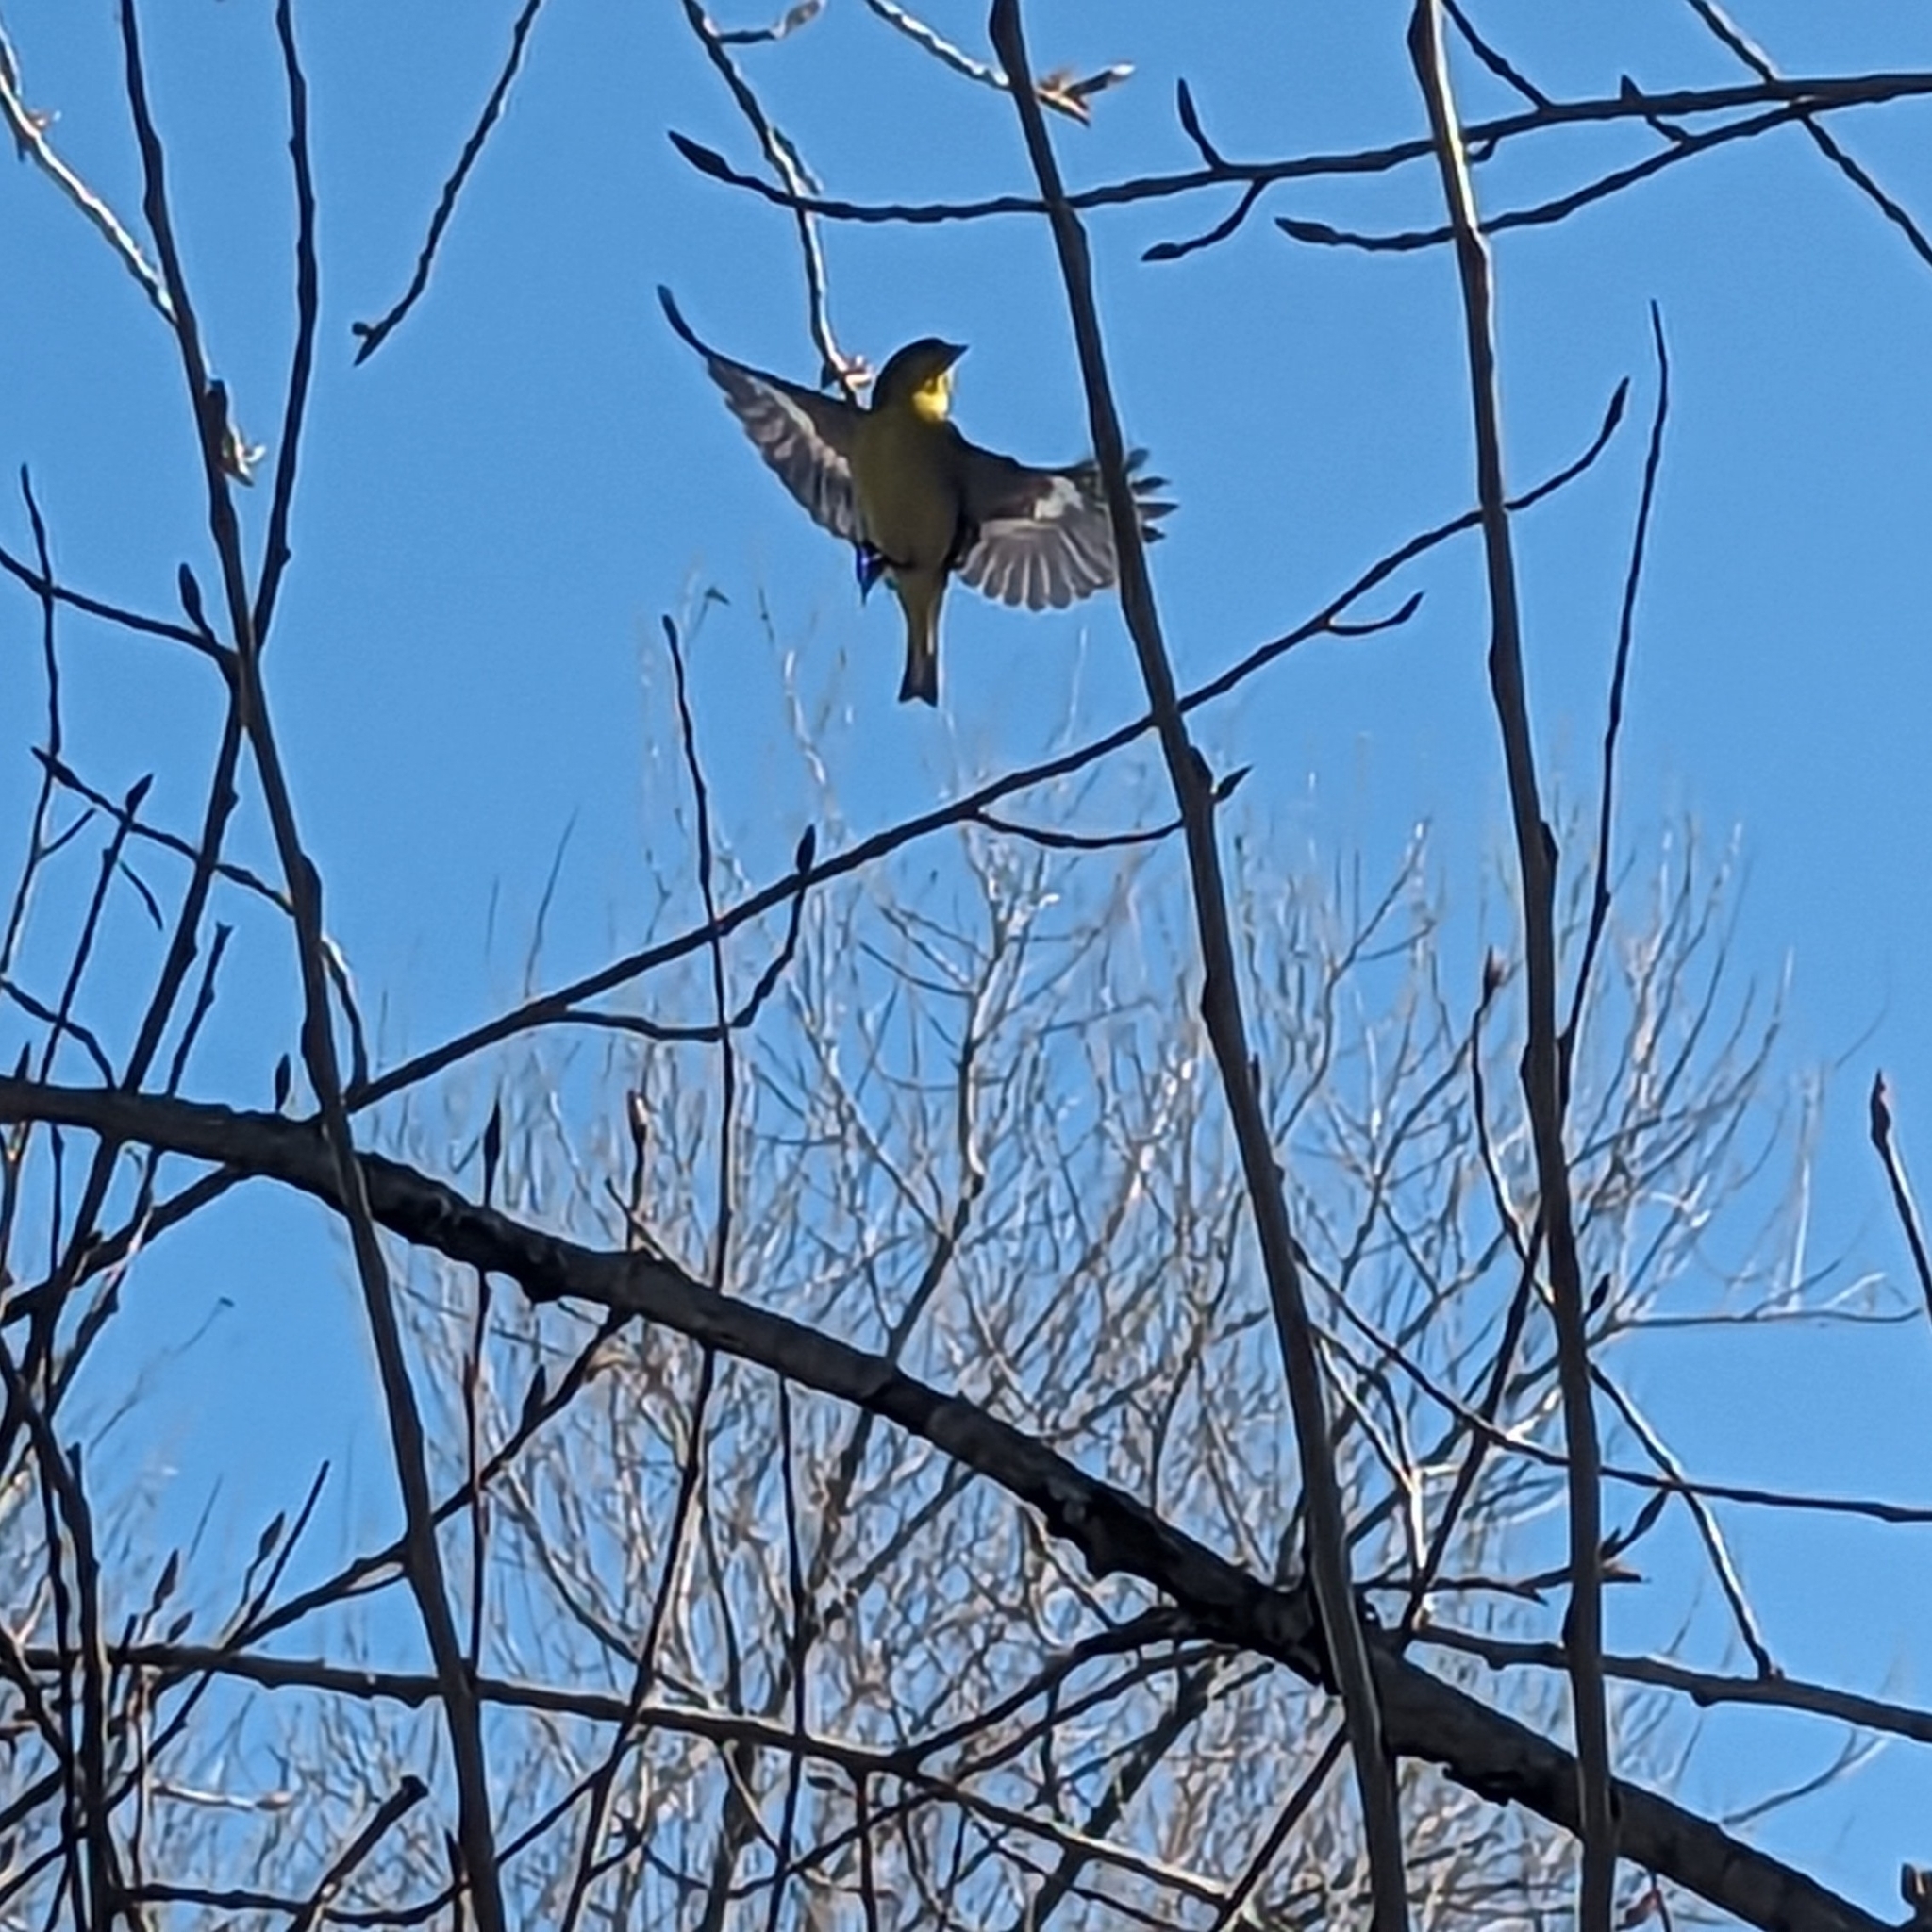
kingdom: Animalia
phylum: Chordata
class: Aves
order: Passeriformes
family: Fringillidae
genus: Spinus
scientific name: Spinus psaltria
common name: Lesser goldfinch
